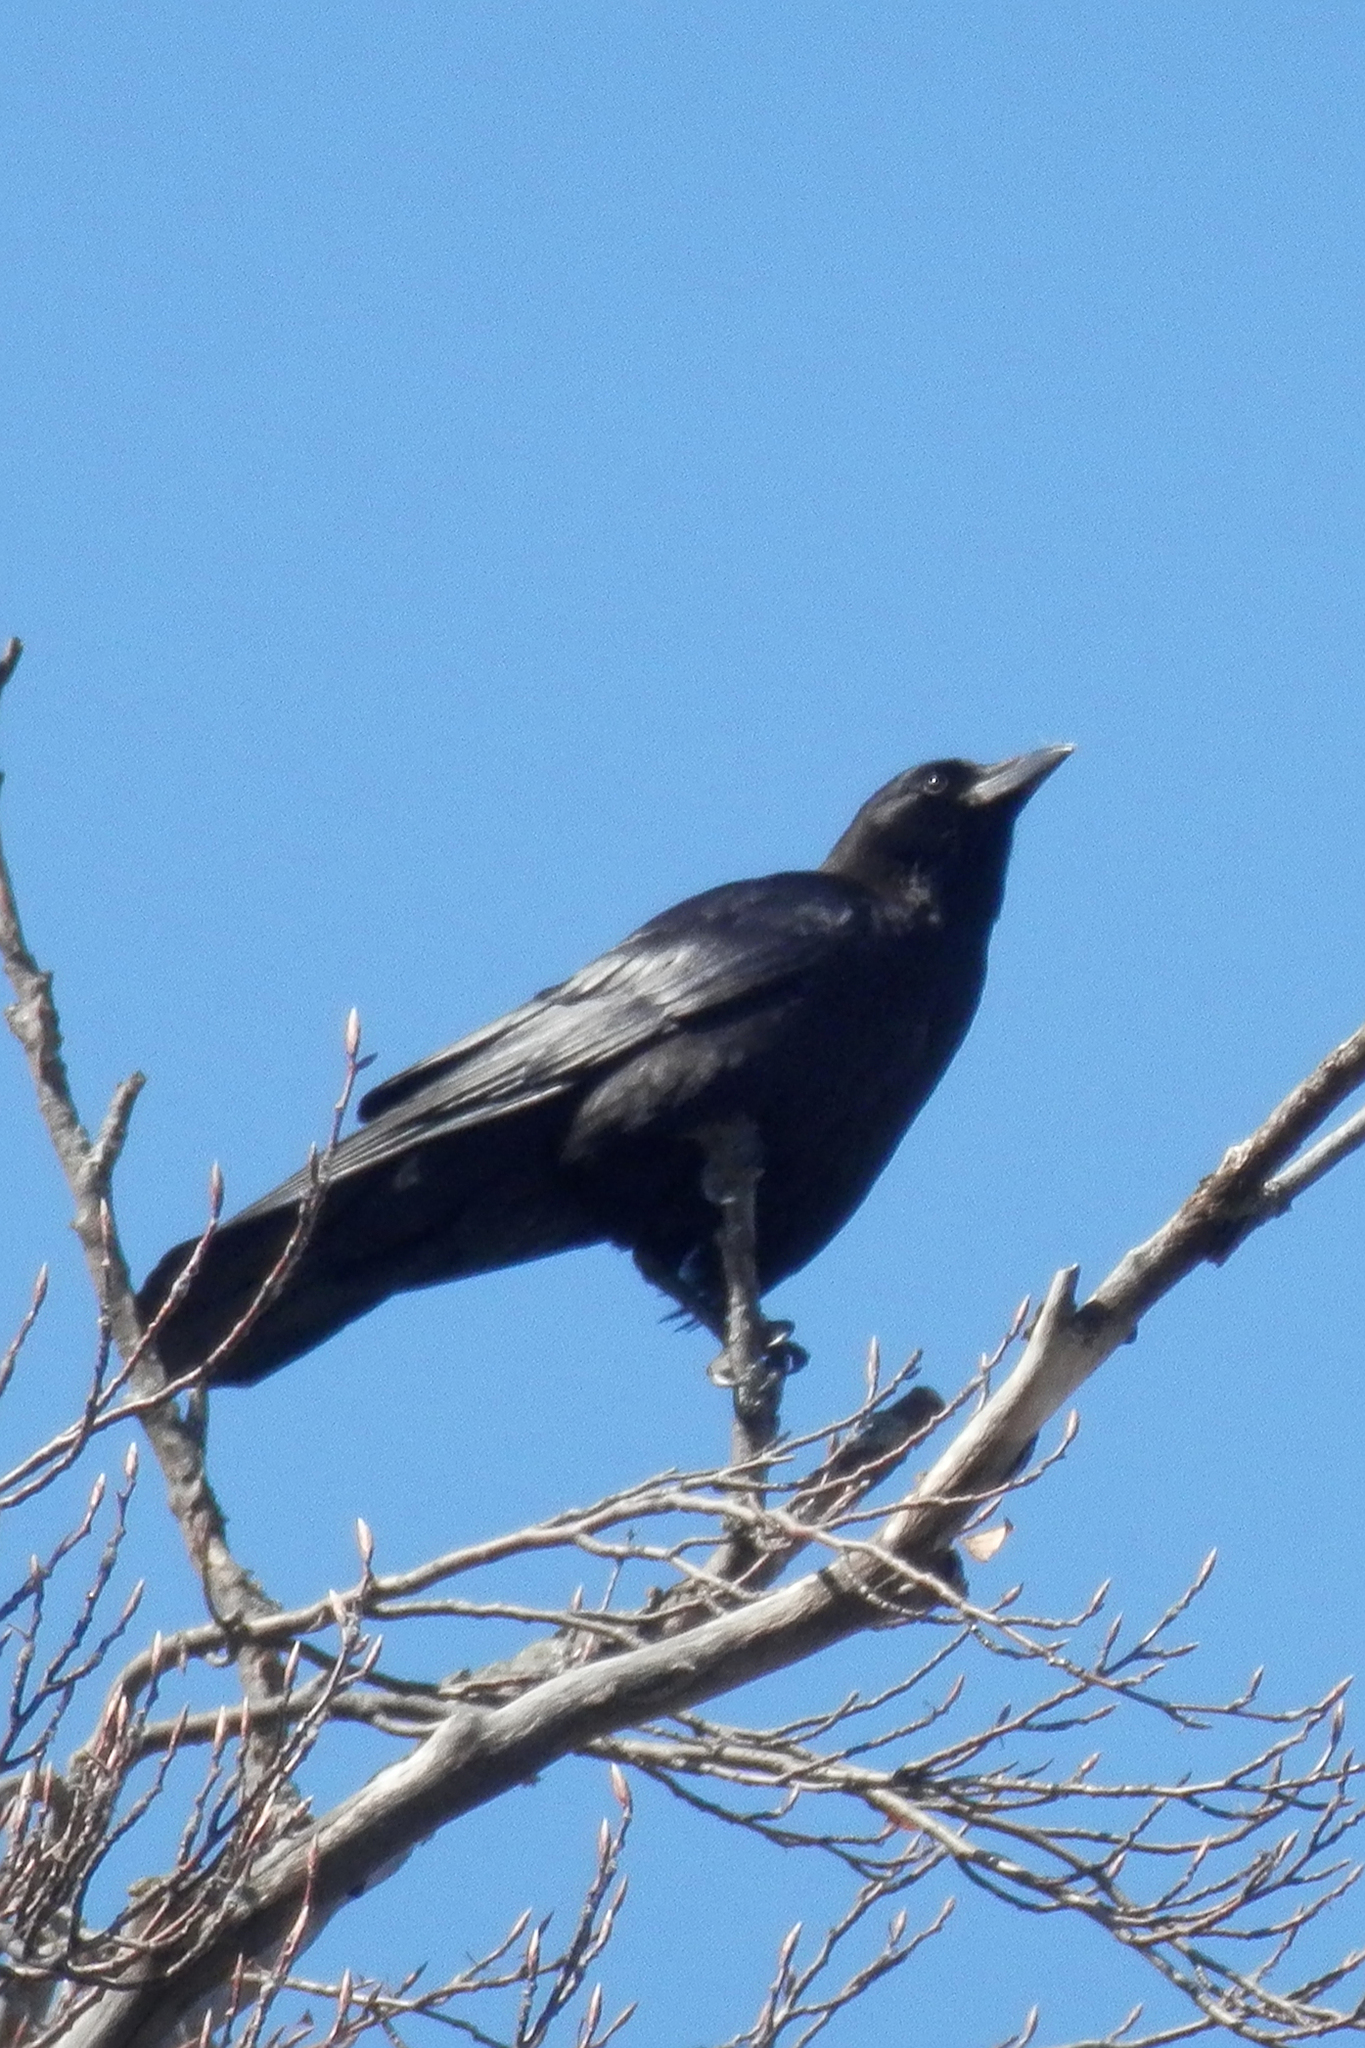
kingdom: Animalia
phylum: Chordata
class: Aves
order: Passeriformes
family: Corvidae
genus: Corvus
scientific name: Corvus brachyrhynchos
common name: American crow
